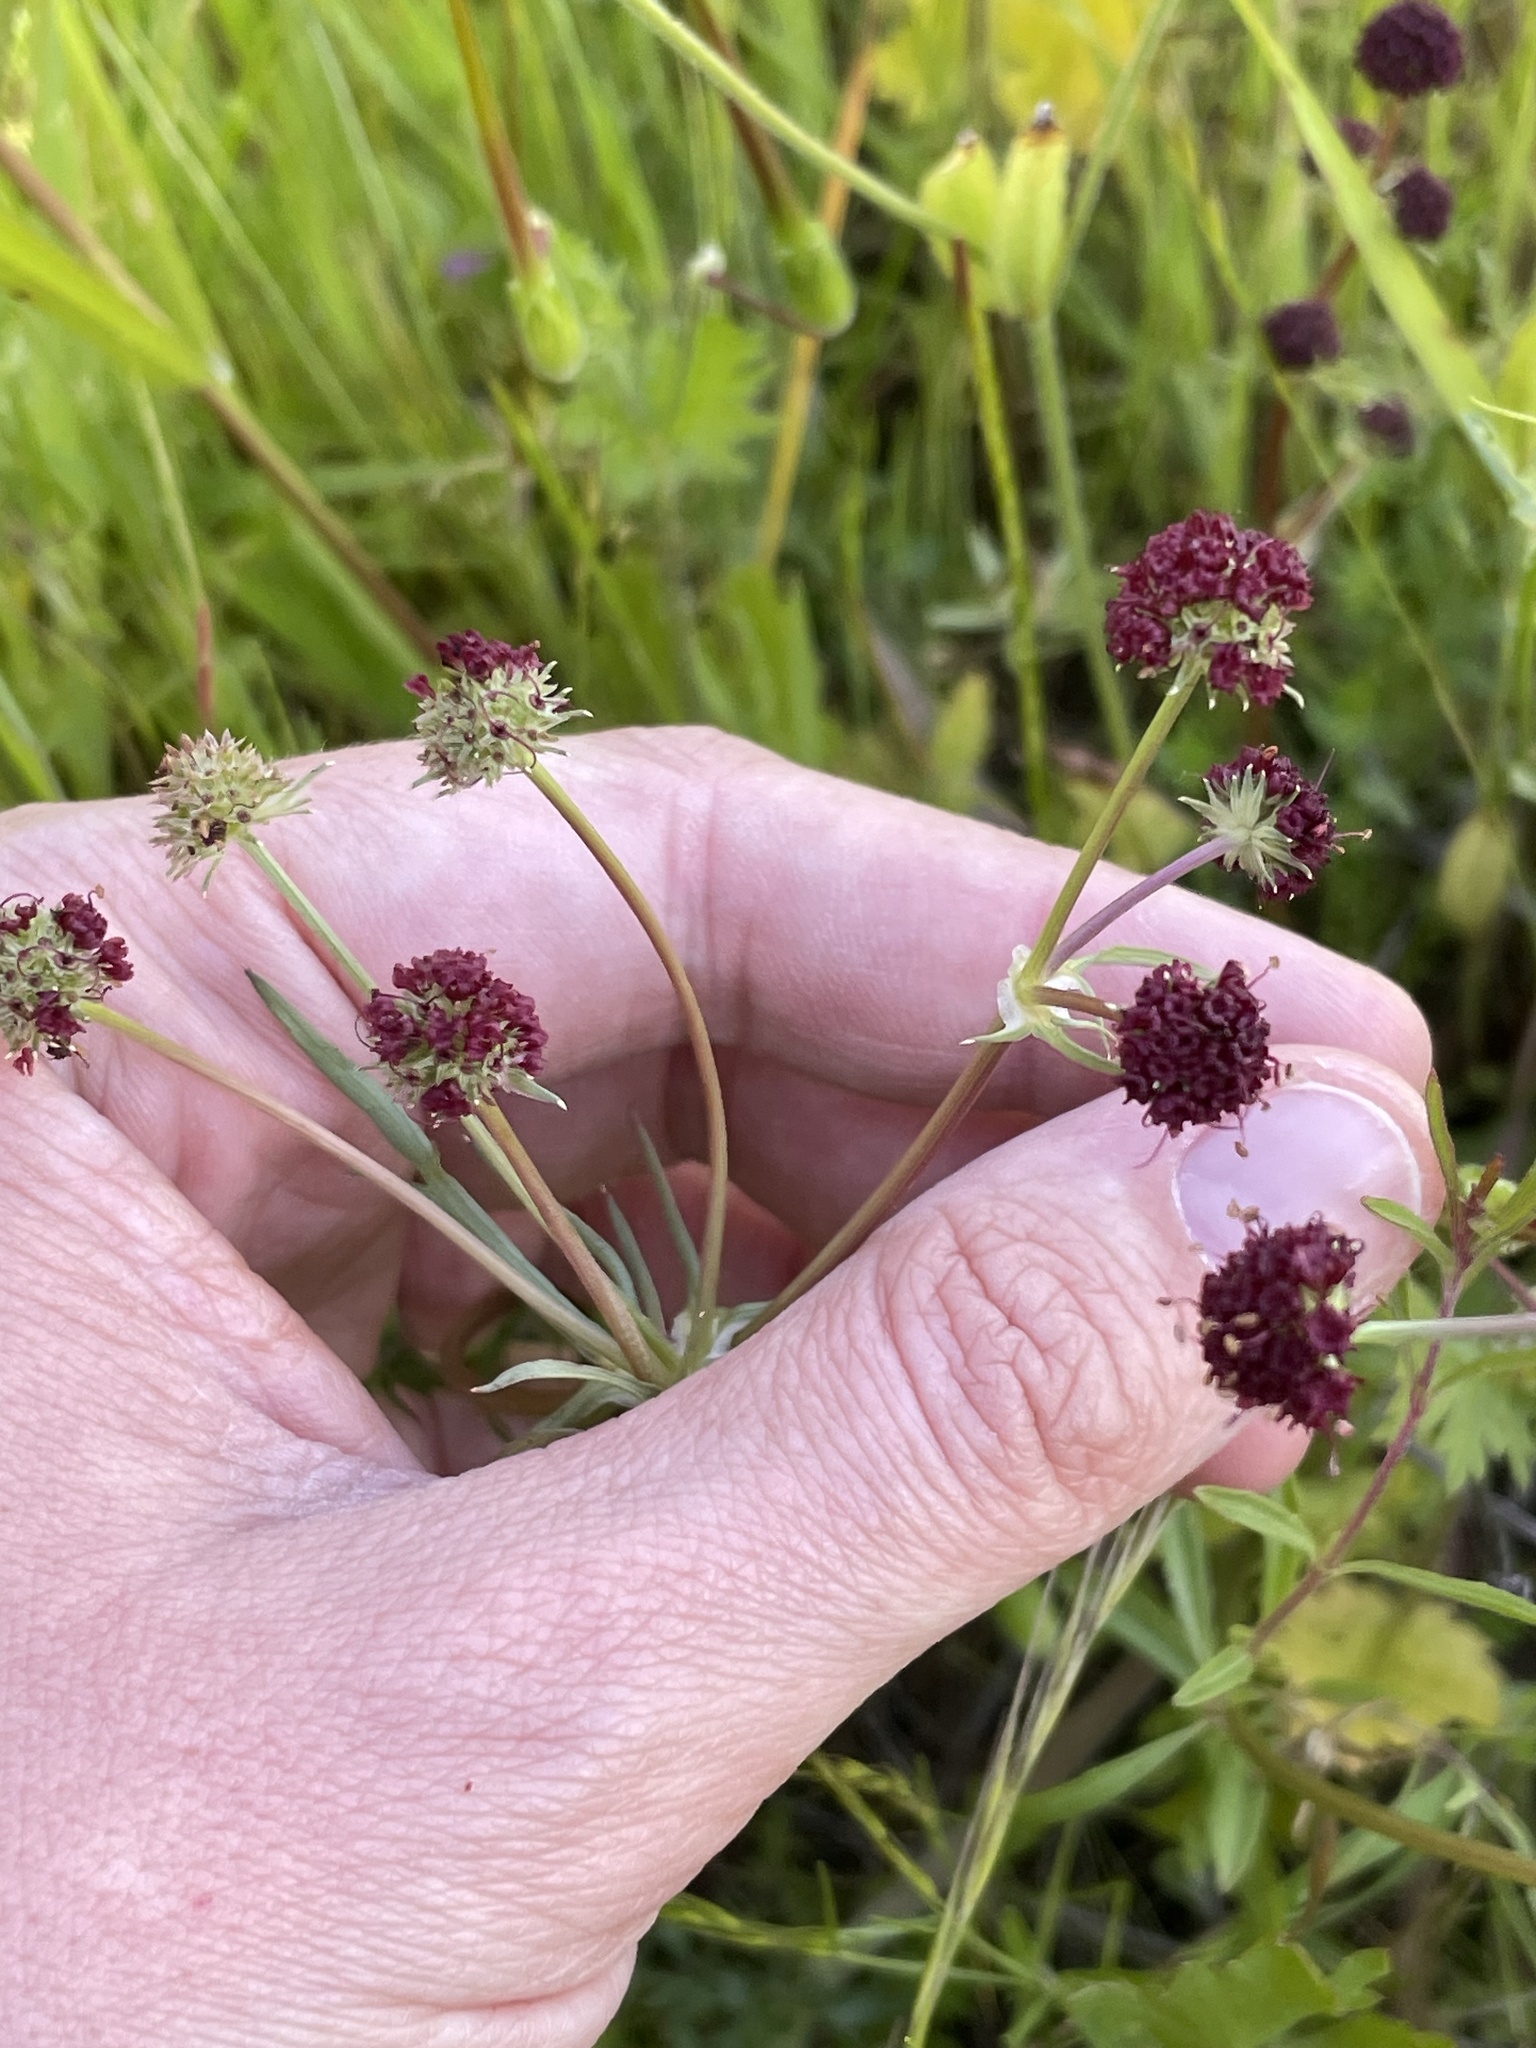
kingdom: Plantae
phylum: Tracheophyta
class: Magnoliopsida
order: Apiales
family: Apiaceae
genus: Sanicula
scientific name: Sanicula bipinnatifida
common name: Shoe-buttons
